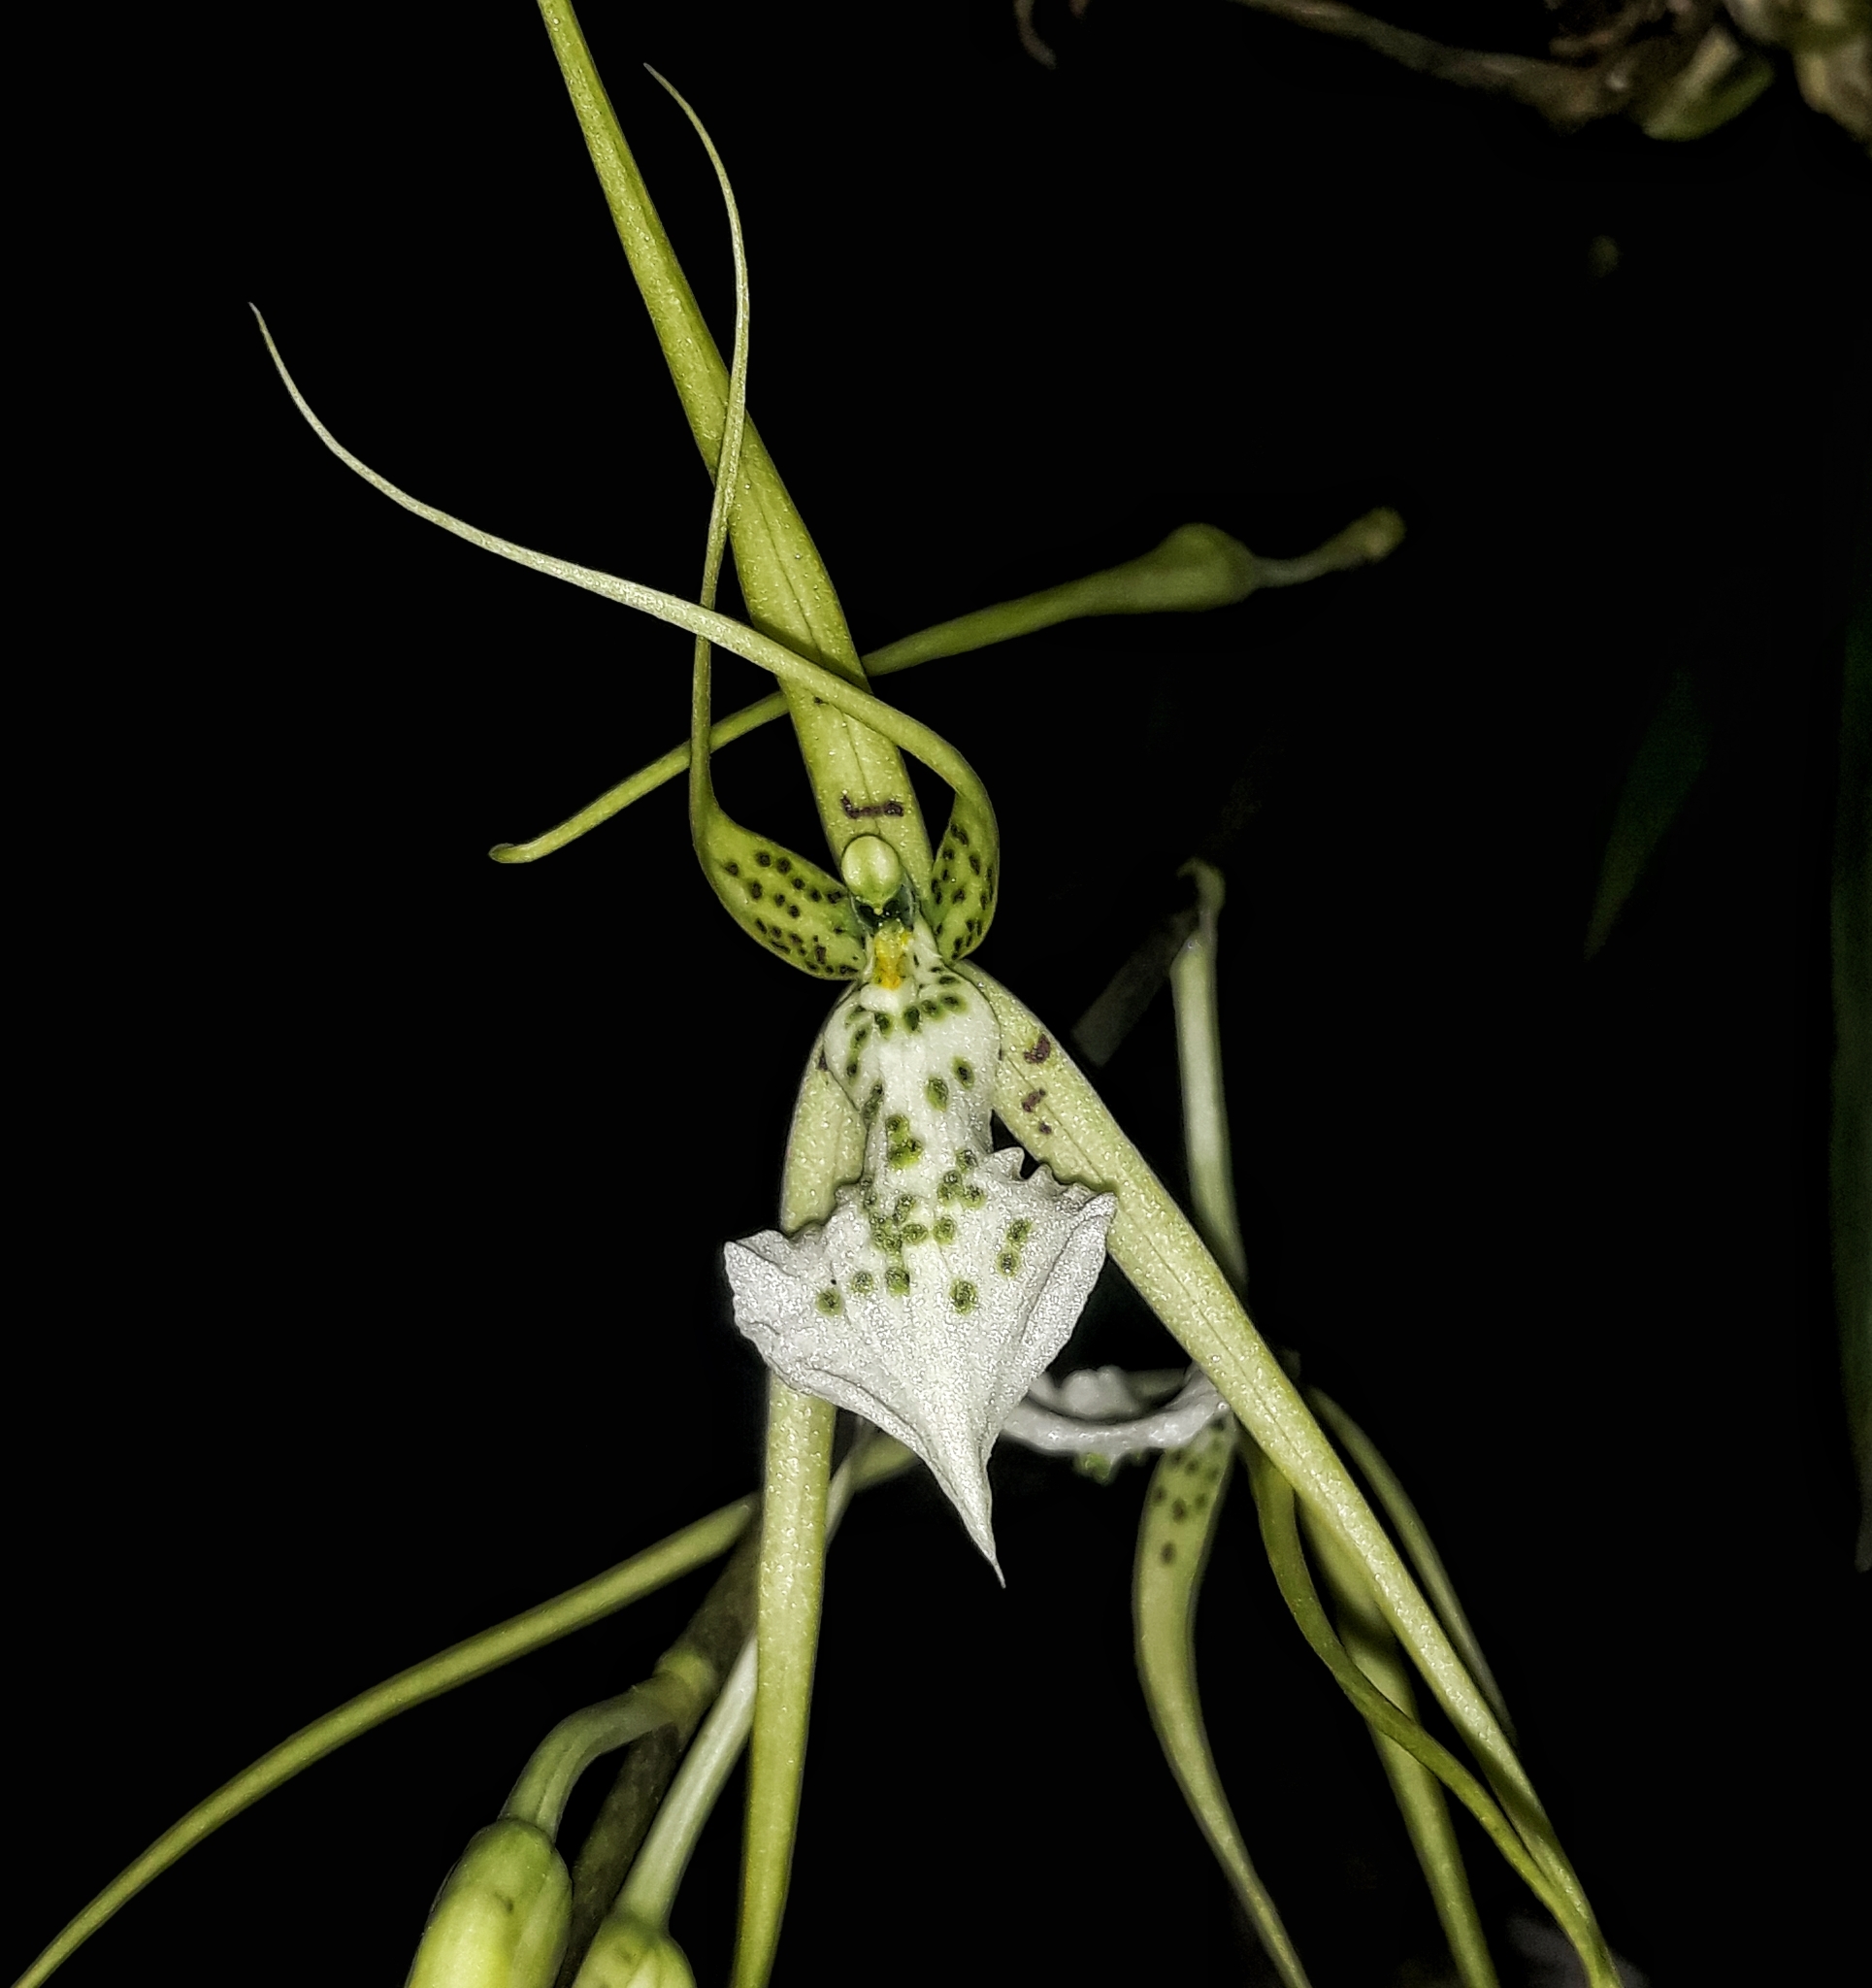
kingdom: Plantae
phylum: Tracheophyta
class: Liliopsida
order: Asparagales
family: Orchidaceae
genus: Brassia
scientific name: Brassia verrucosa
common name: Warty brassia
